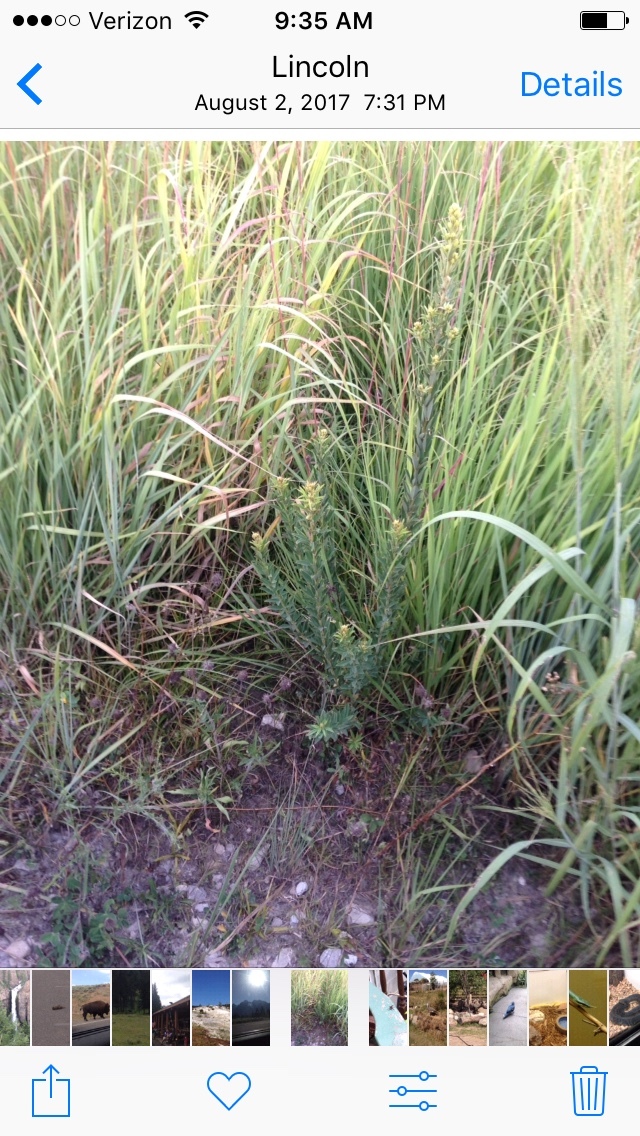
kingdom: Plantae
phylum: Tracheophyta
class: Magnoliopsida
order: Fabales
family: Fabaceae
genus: Lespedeza
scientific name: Lespedeza capitata
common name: Dusty clover
